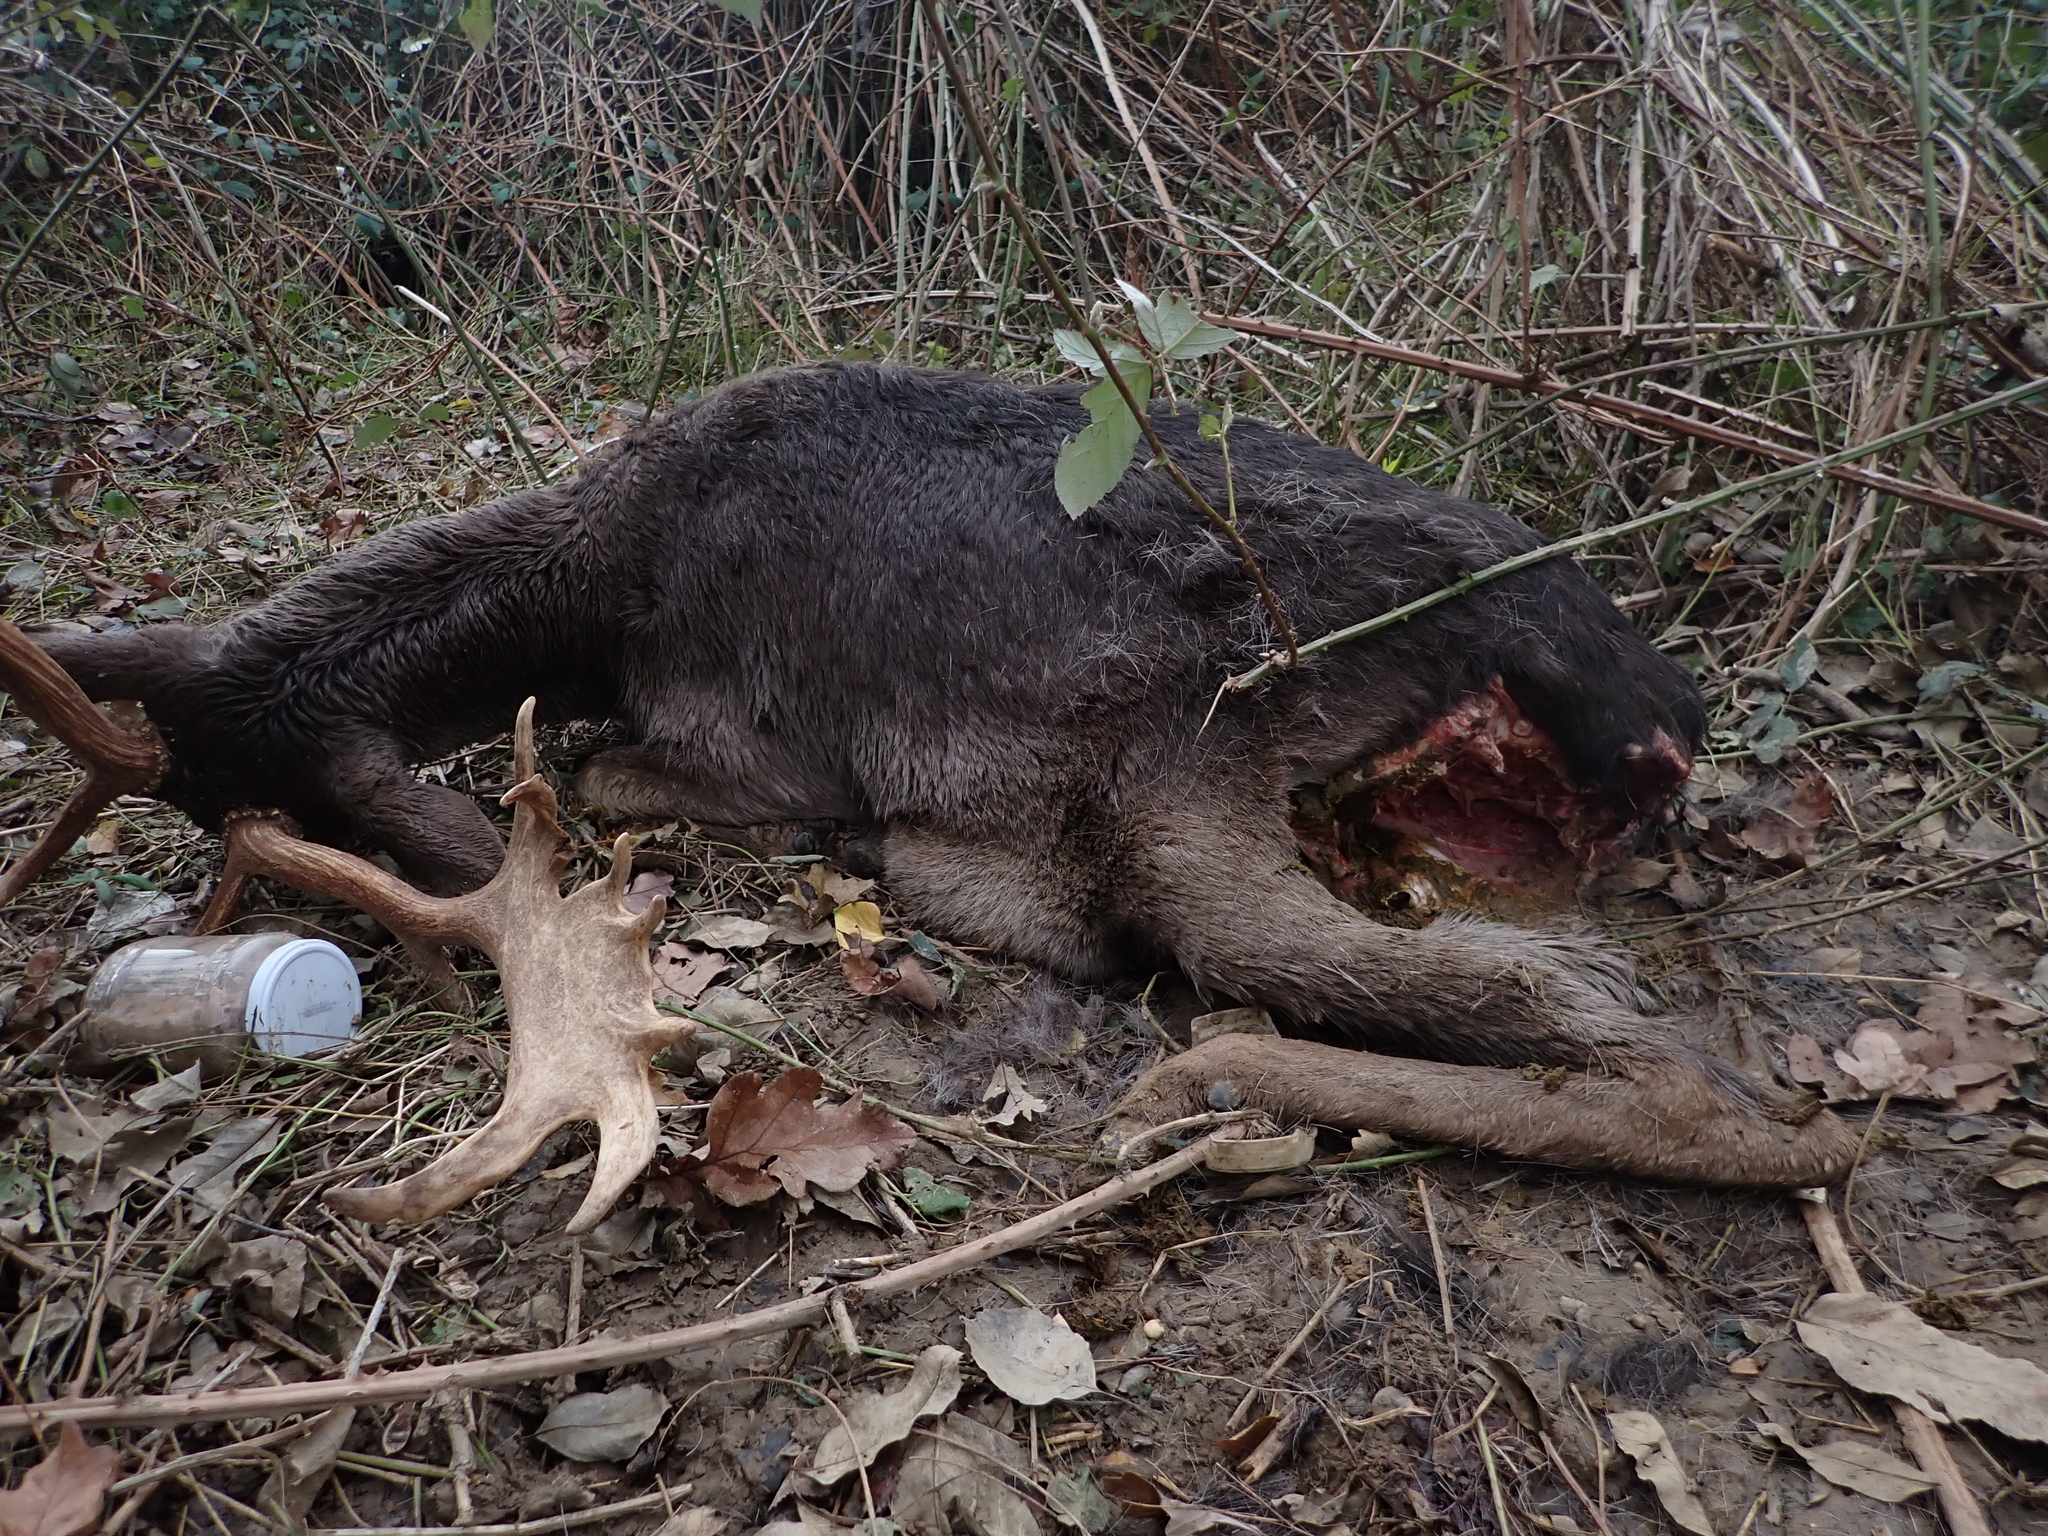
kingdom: Animalia
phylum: Chordata
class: Mammalia
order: Artiodactyla
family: Cervidae
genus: Dama
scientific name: Dama dama
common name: Fallow deer
